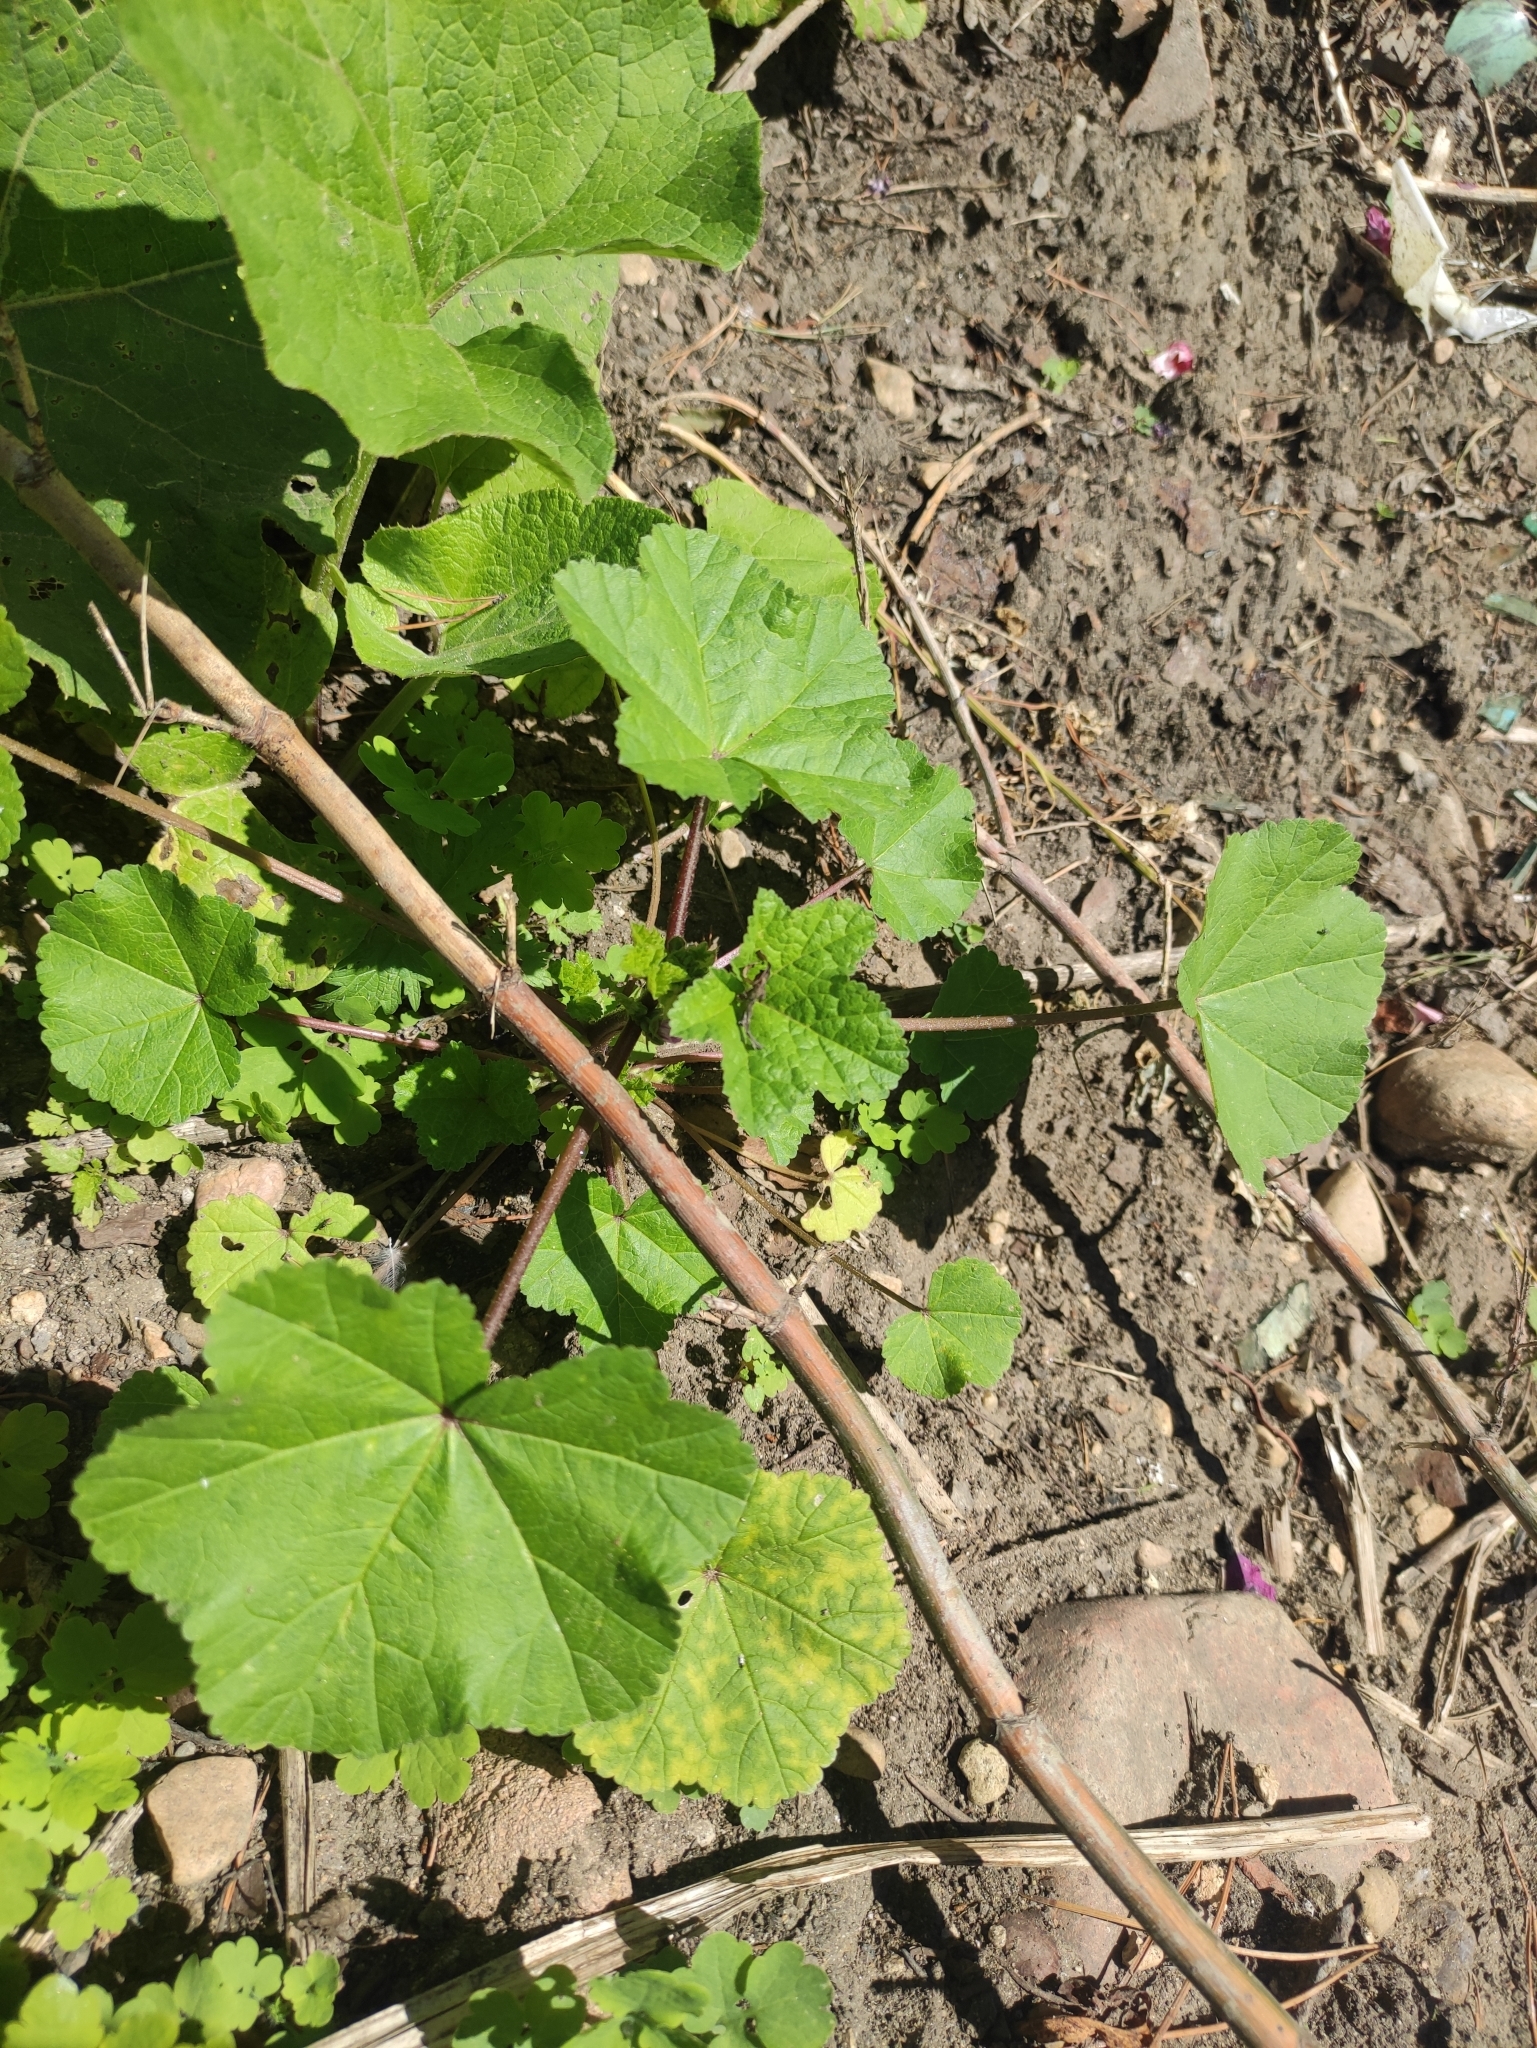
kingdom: Plantae
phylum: Tracheophyta
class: Magnoliopsida
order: Malvales
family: Malvaceae
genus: Malva
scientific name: Malva verticillata
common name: Chinese mallow
